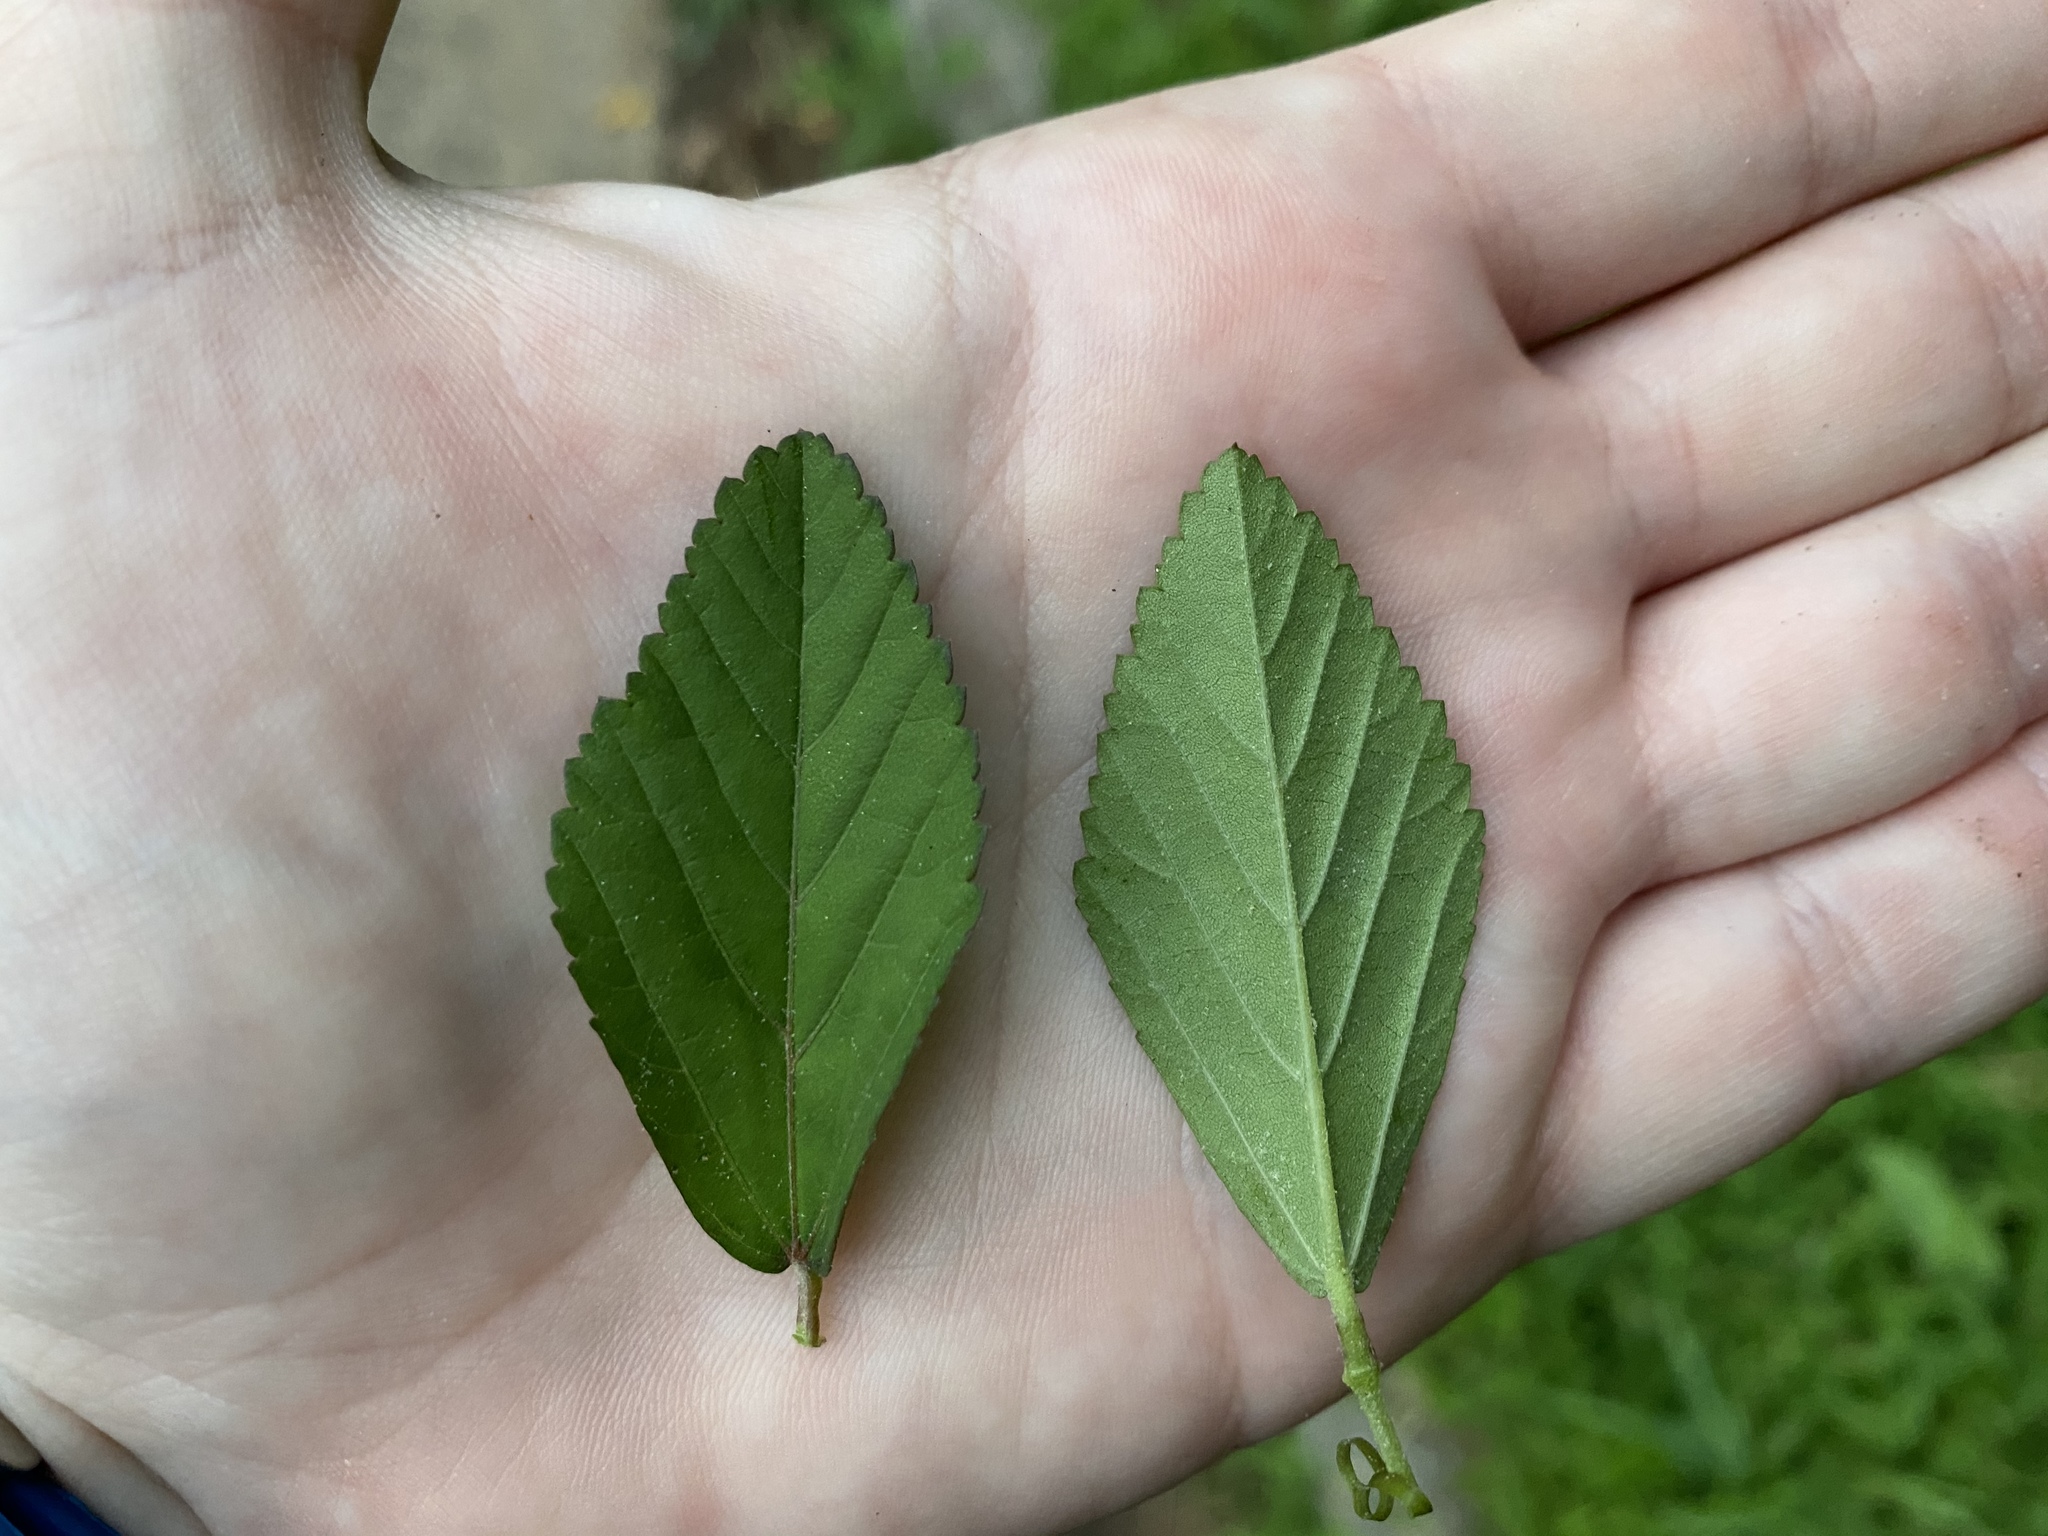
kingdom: Plantae
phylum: Tracheophyta
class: Magnoliopsida
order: Malvales
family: Malvaceae
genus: Sida
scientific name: Sida rhombifolia
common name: Queensland-hemp
